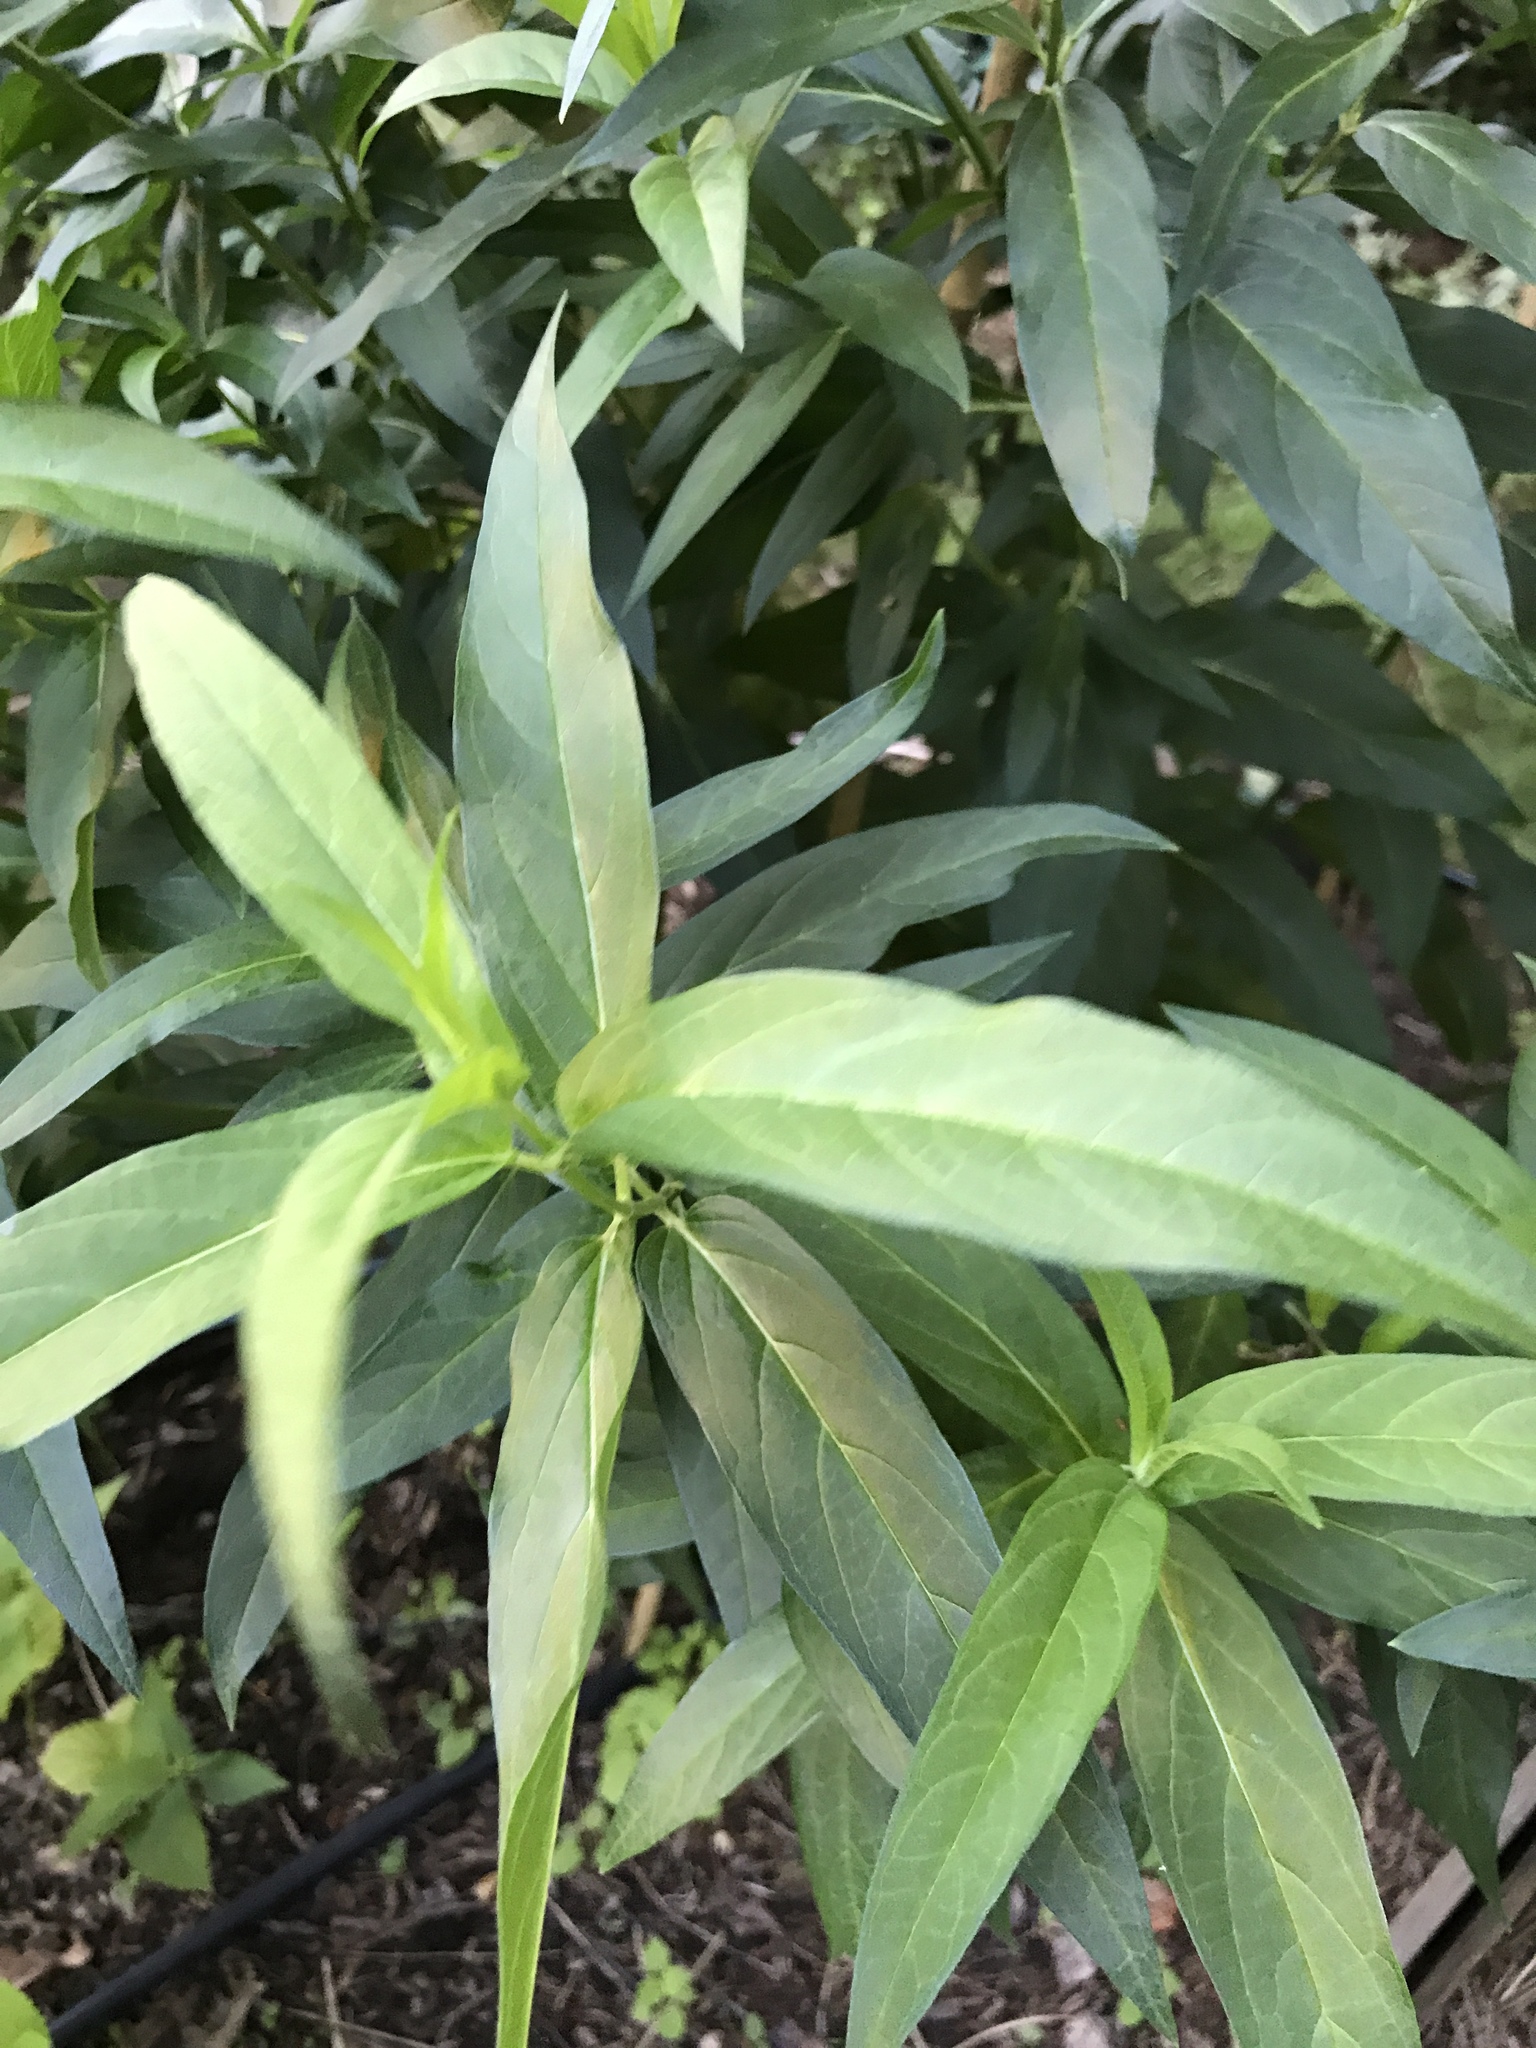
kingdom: Plantae
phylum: Tracheophyta
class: Magnoliopsida
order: Gentianales
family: Apocynaceae
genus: Asclepias
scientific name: Asclepias incarnata
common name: Swamp milkweed
